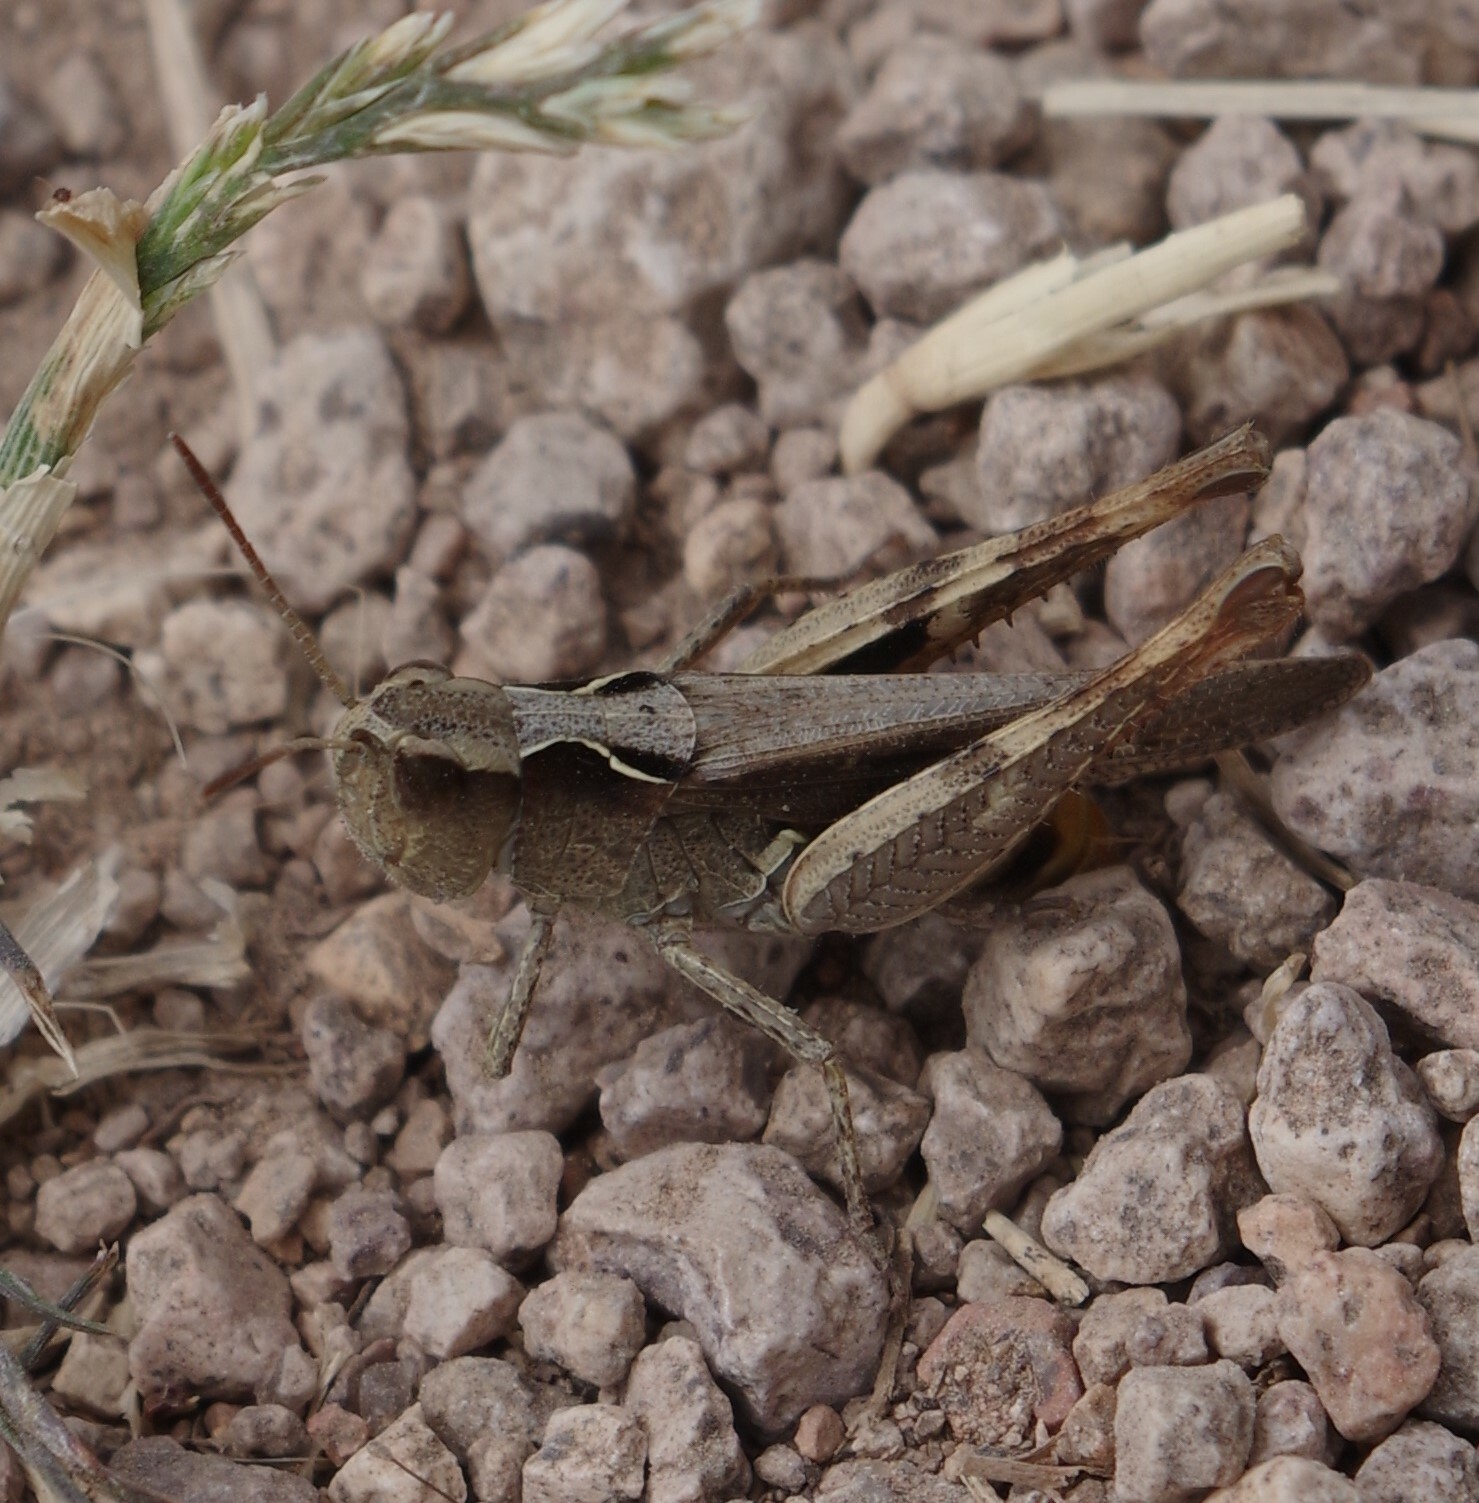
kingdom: Animalia
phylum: Arthropoda
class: Insecta
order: Orthoptera
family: Acrididae
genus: Chorthippus
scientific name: Chorthippus vagans
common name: Heath grasshopper
